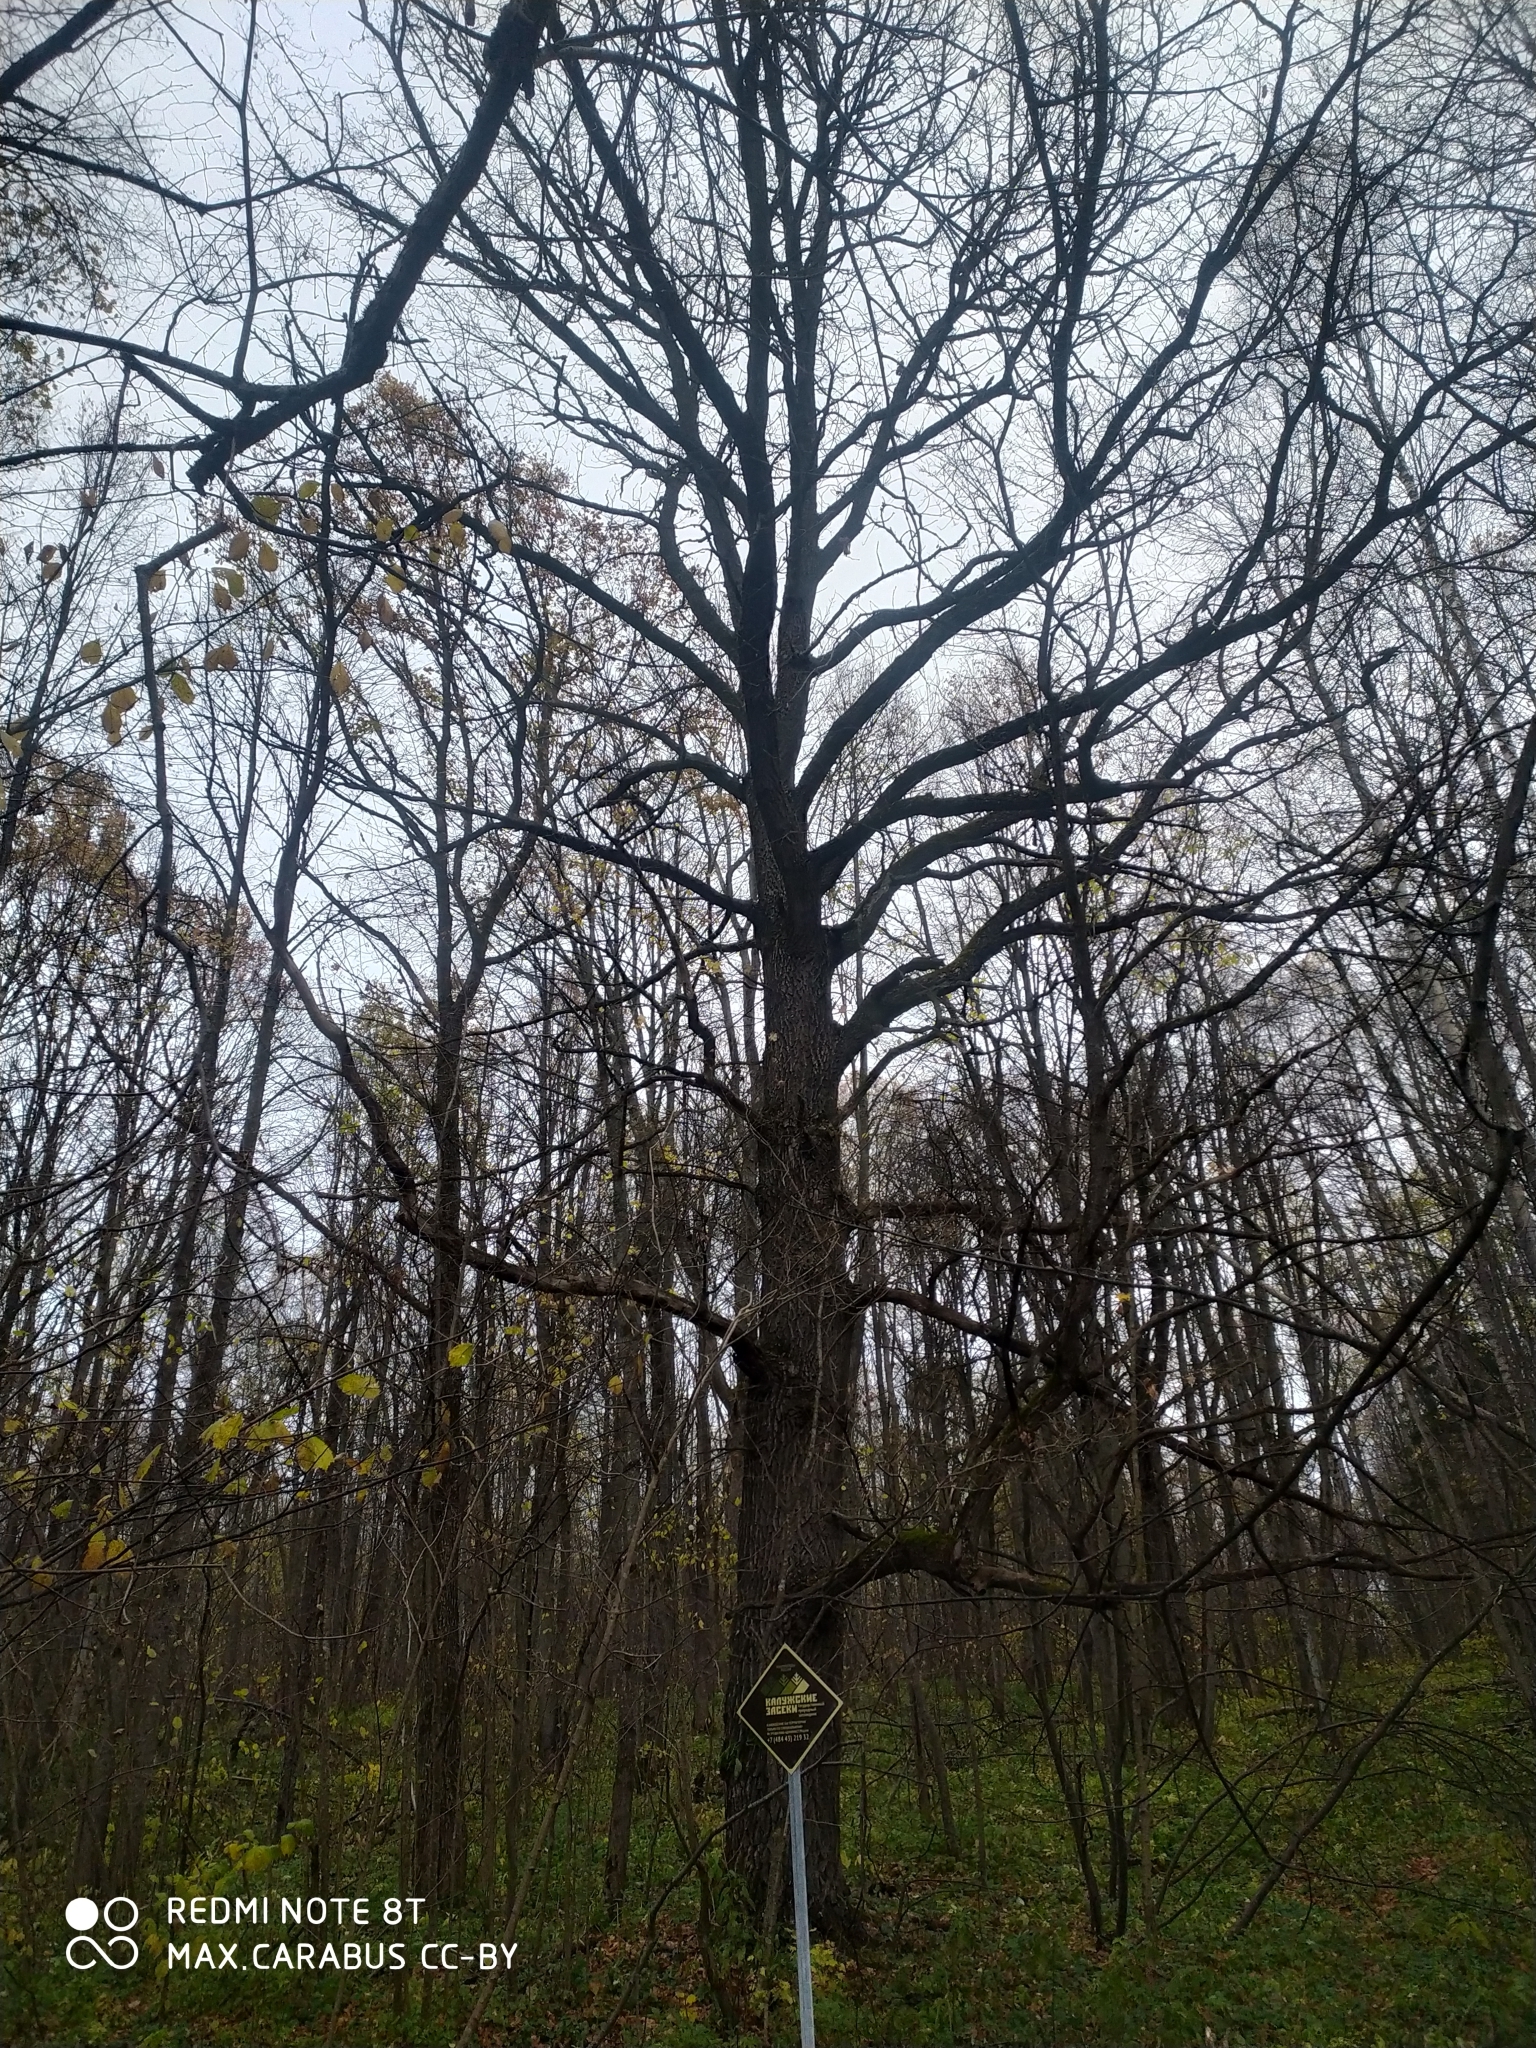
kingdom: Plantae
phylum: Tracheophyta
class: Magnoliopsida
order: Fagales
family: Fagaceae
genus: Quercus
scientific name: Quercus robur
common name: Pedunculate oak
